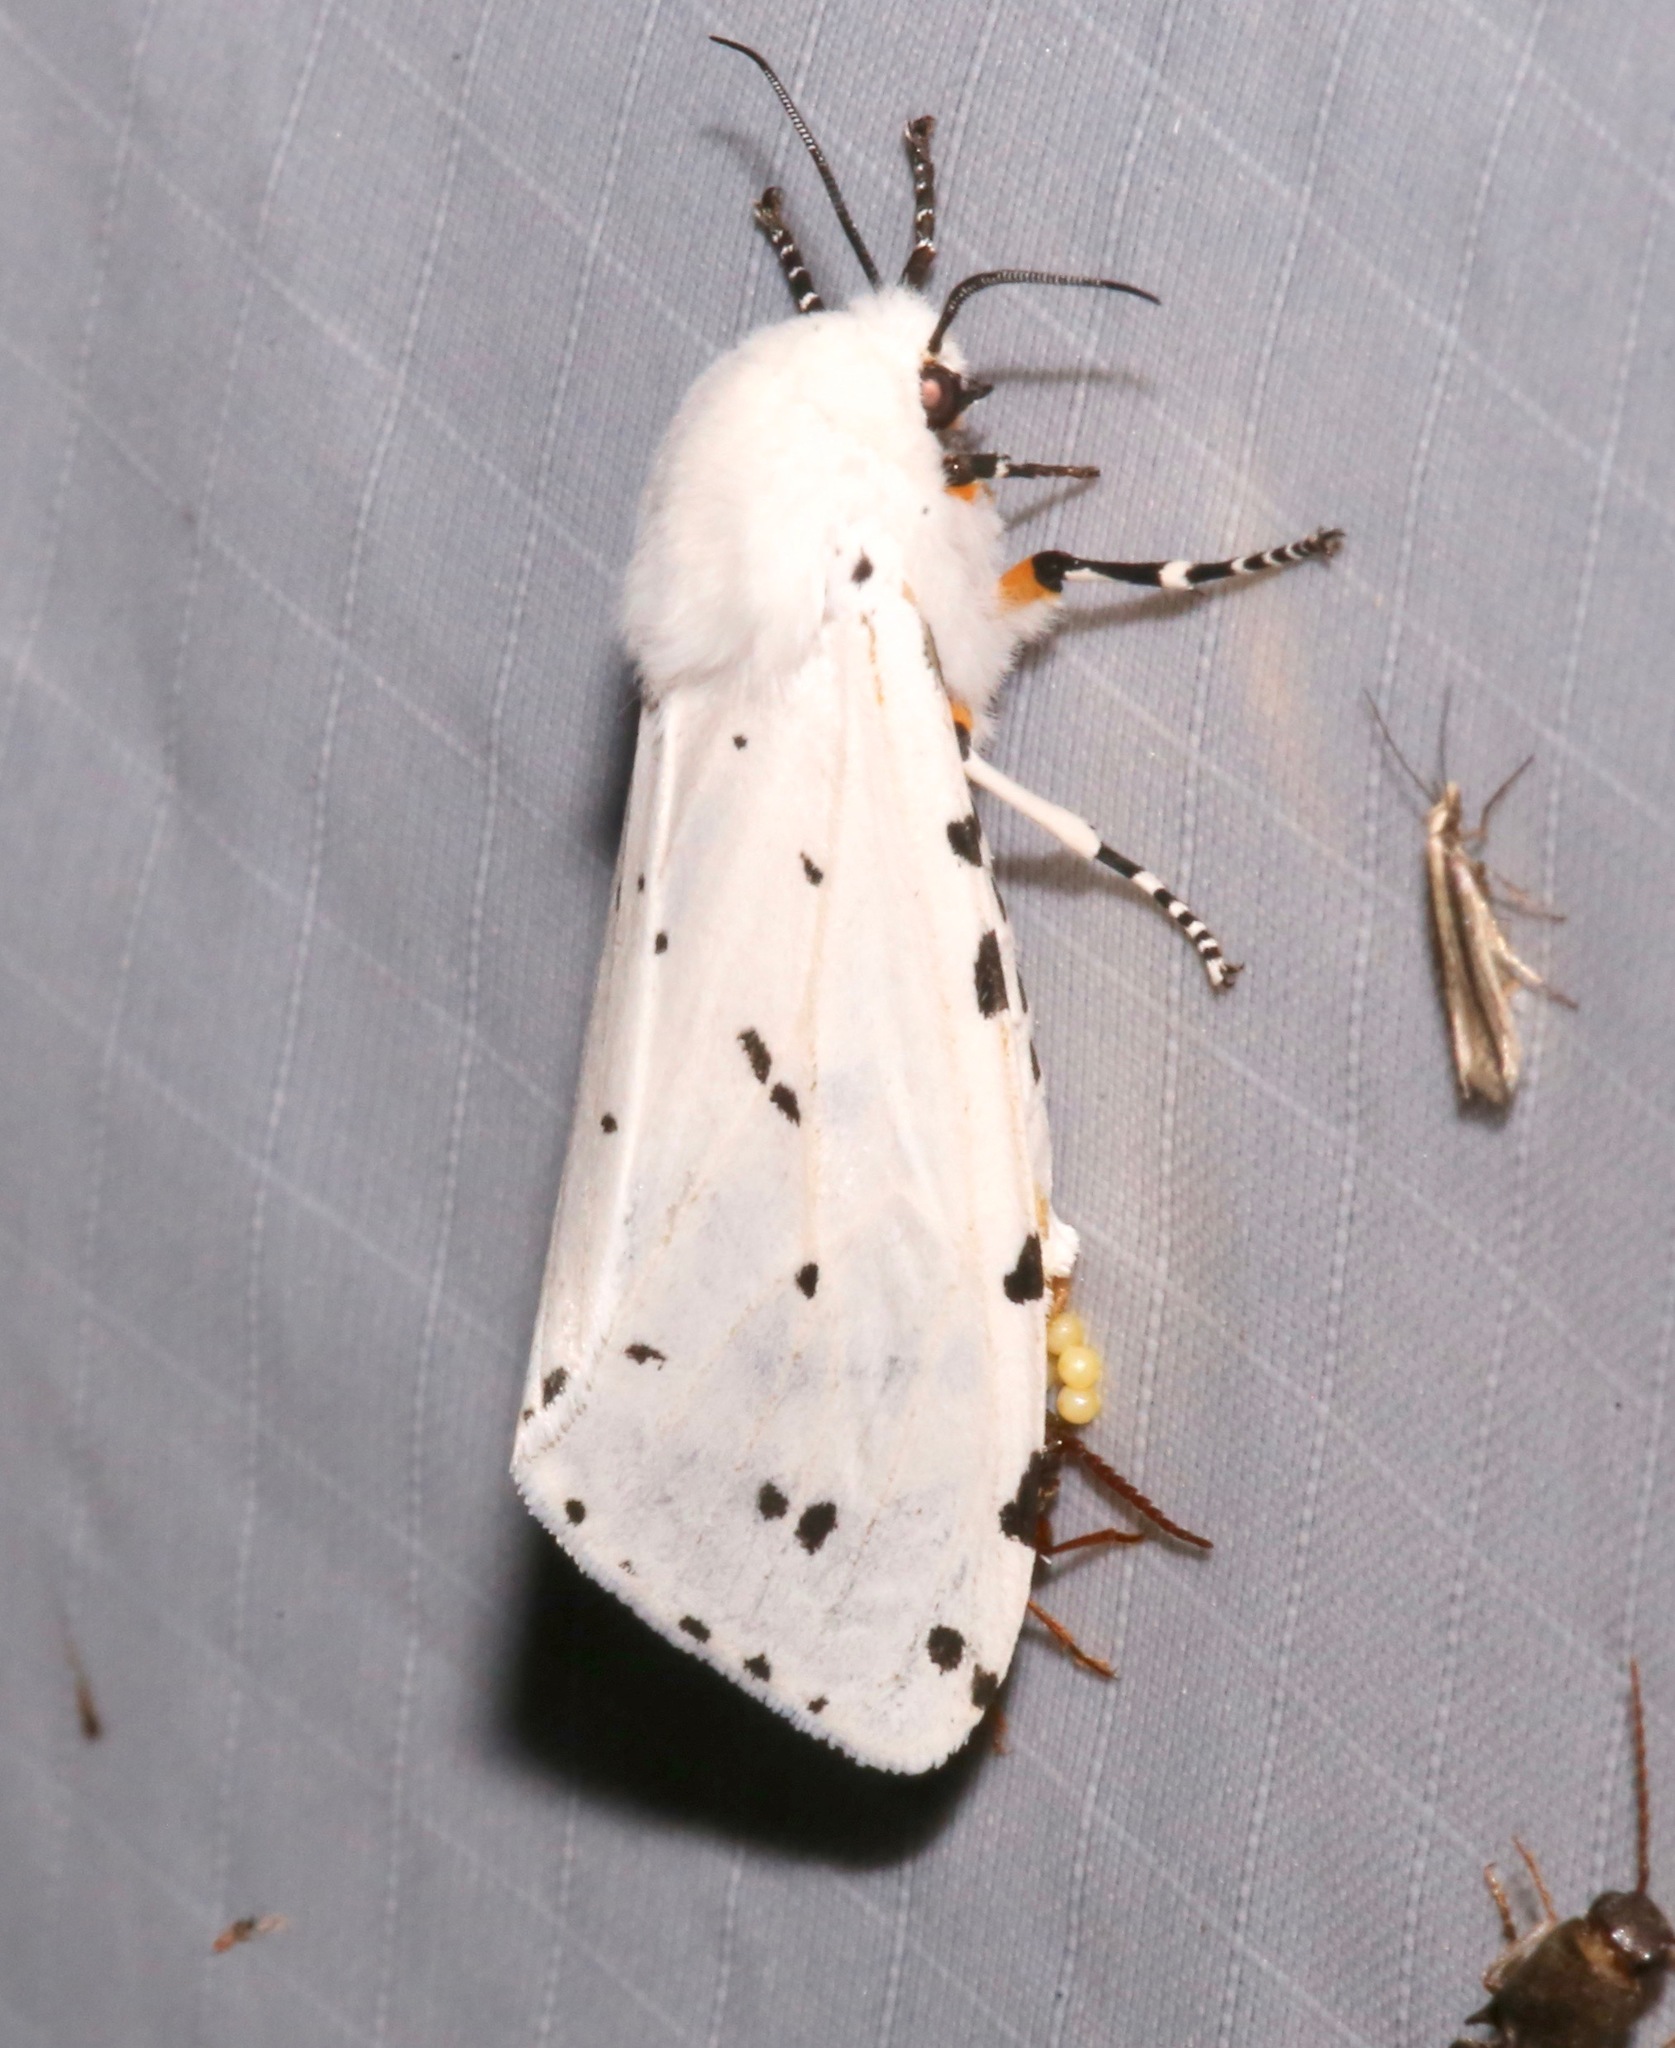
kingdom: Animalia
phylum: Arthropoda
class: Insecta
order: Lepidoptera
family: Erebidae
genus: Estigmene
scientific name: Estigmene albida
